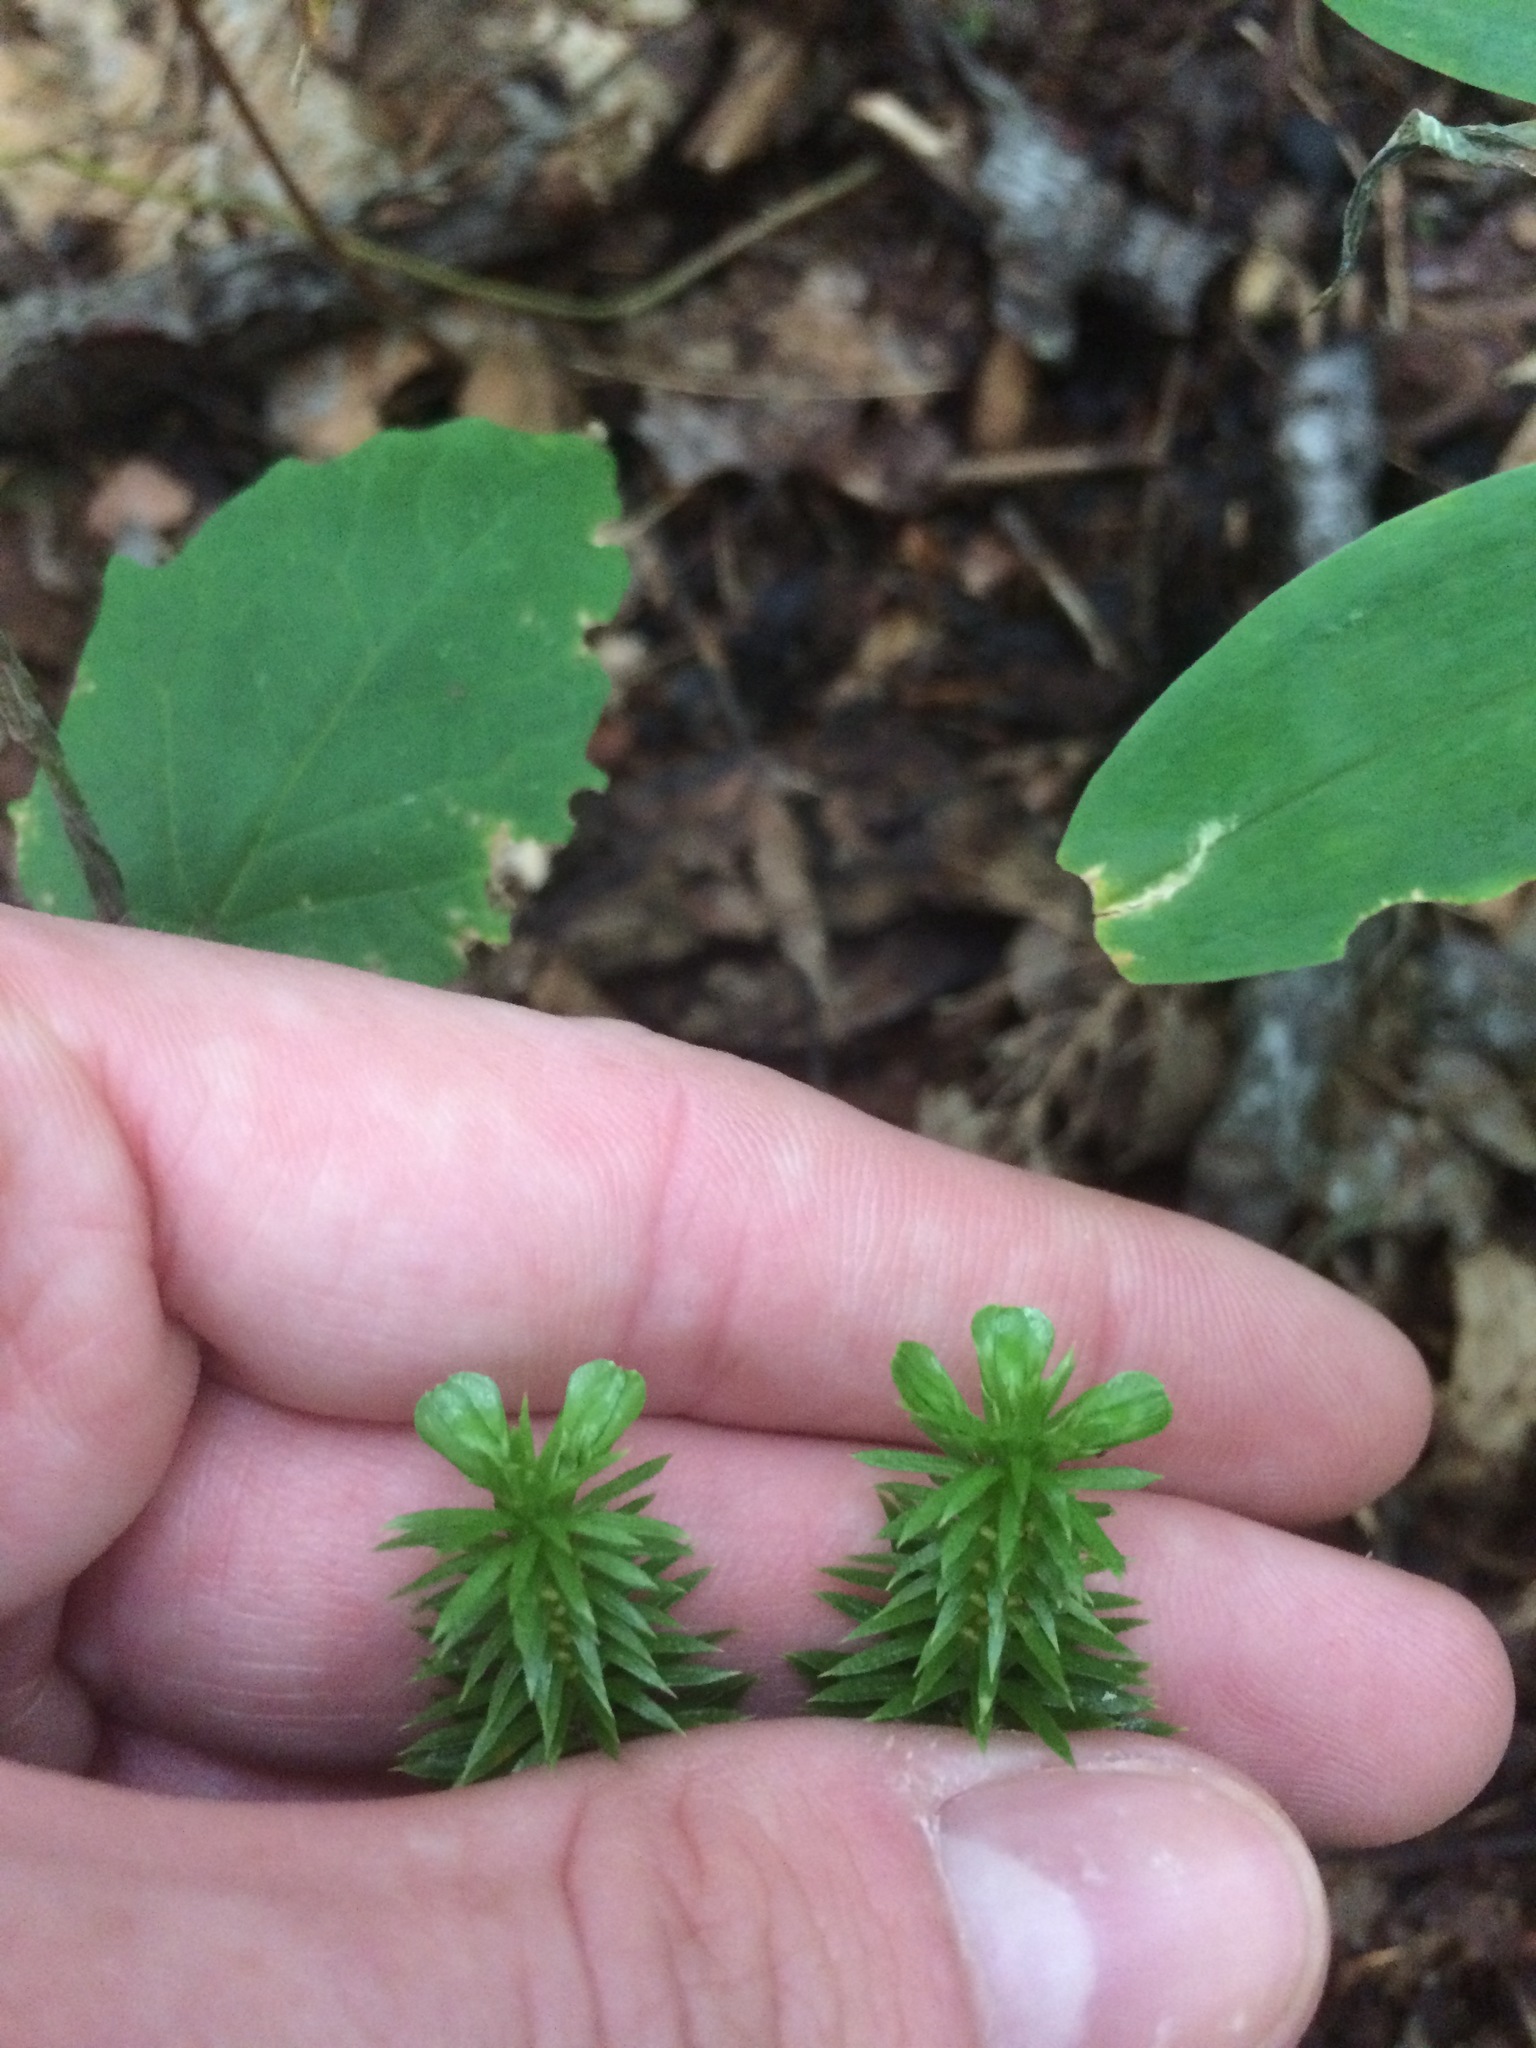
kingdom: Plantae
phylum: Tracheophyta
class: Lycopodiopsida
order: Lycopodiales
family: Lycopodiaceae
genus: Huperzia
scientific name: Huperzia lucidula
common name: Shining clubmoss
